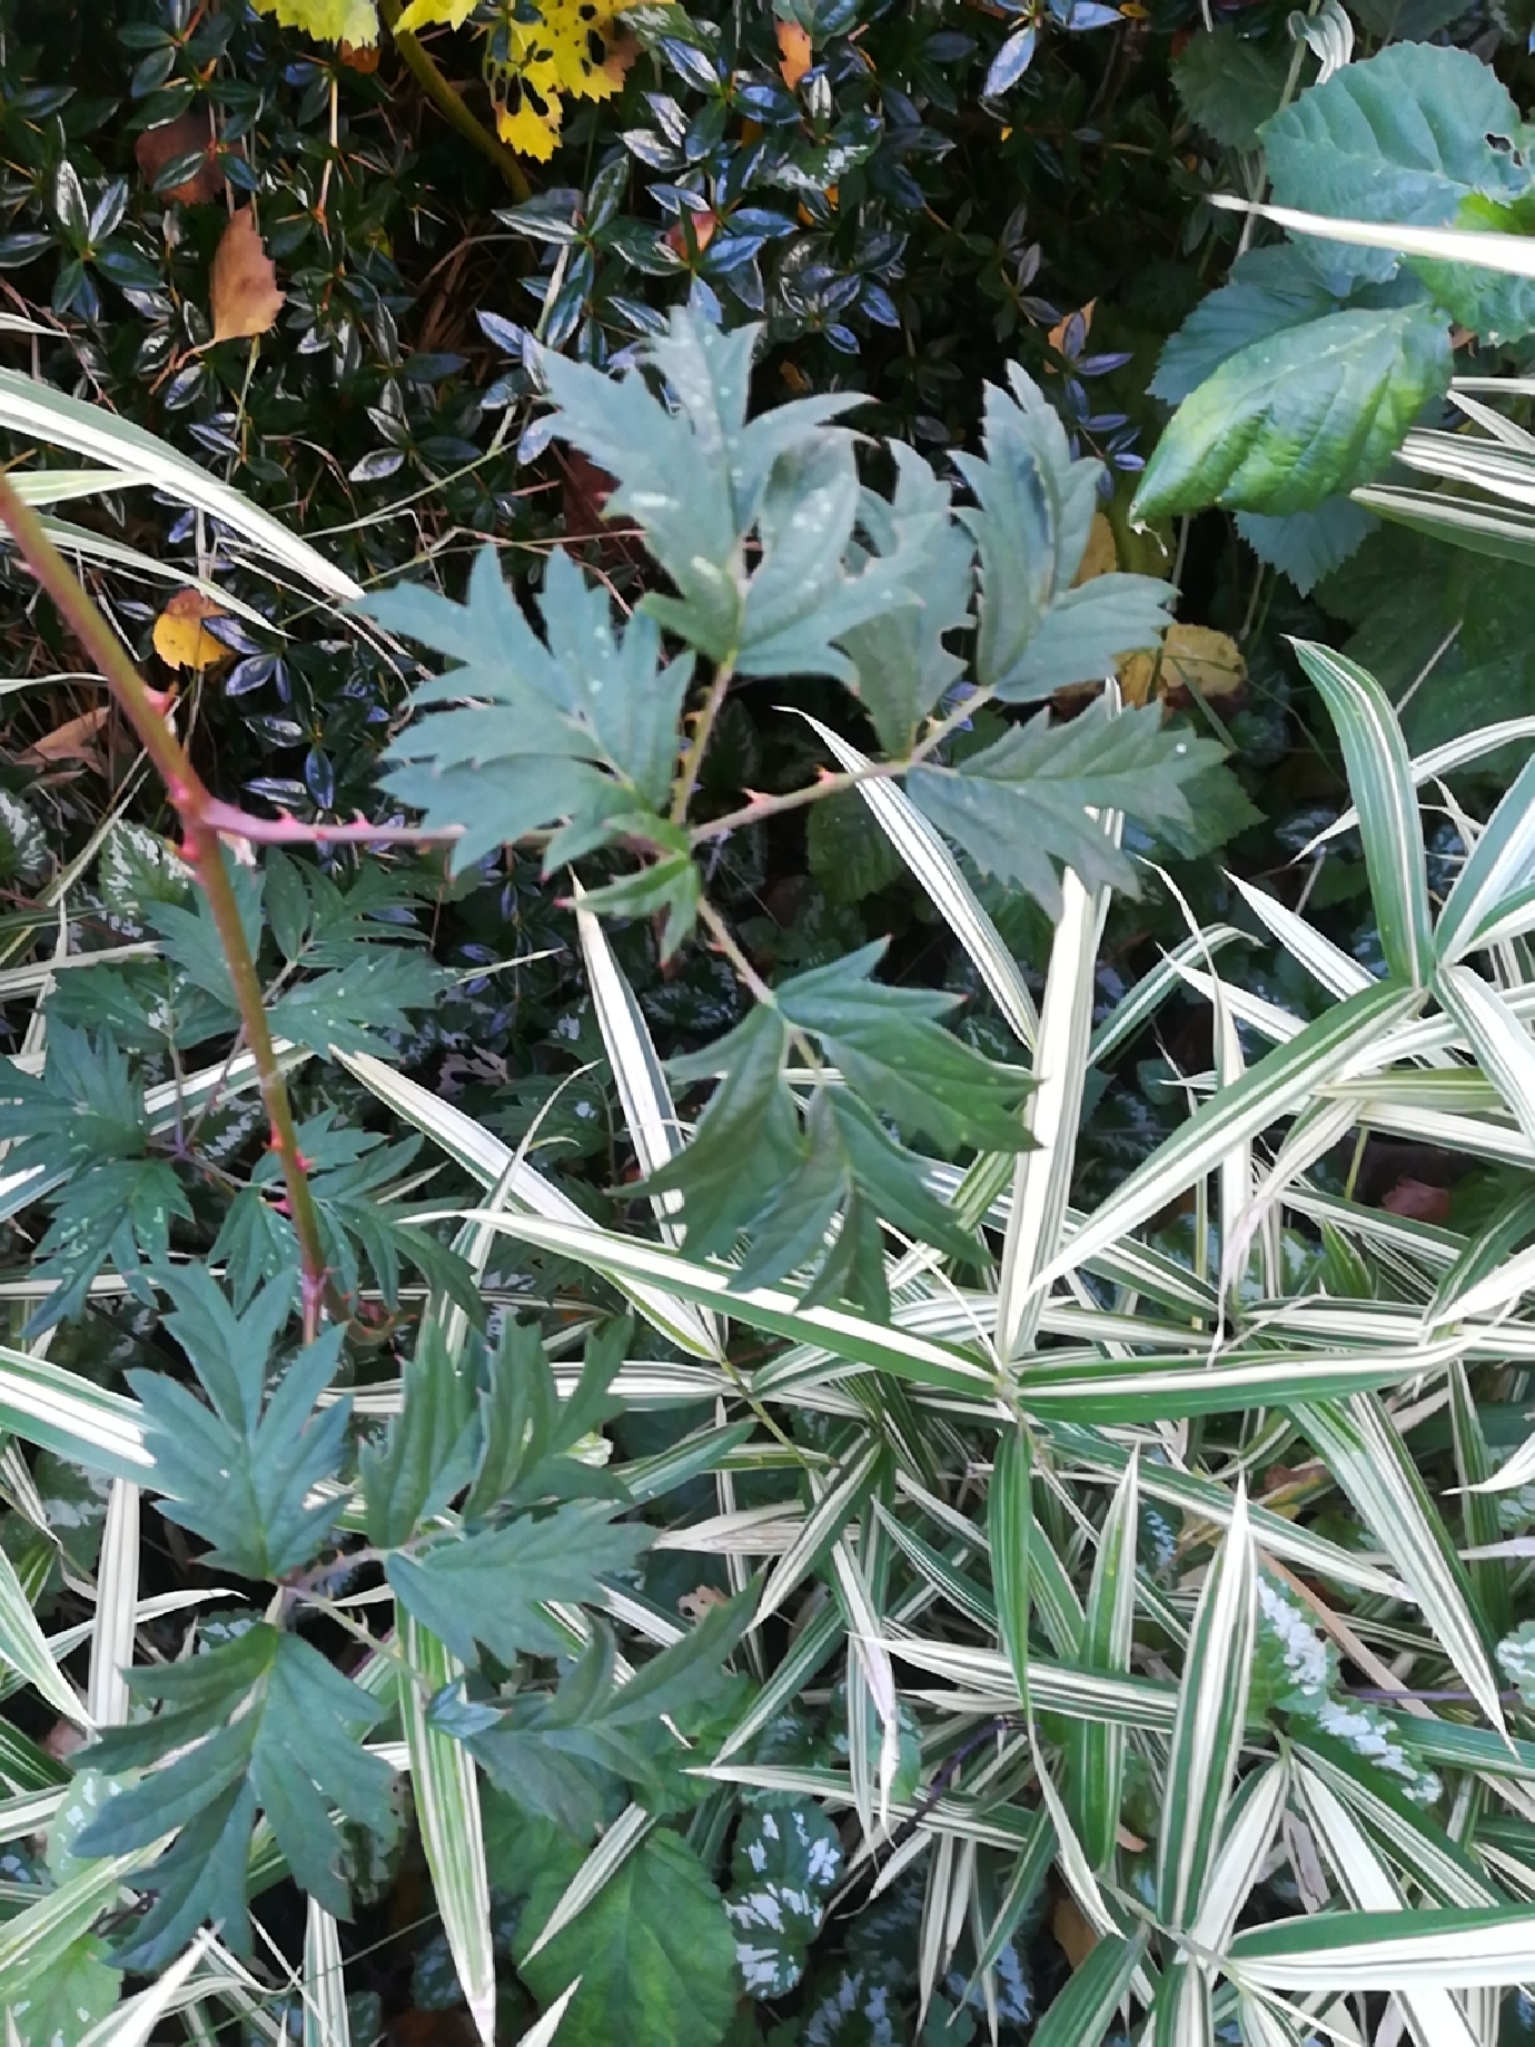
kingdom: Plantae
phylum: Tracheophyta
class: Magnoliopsida
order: Rosales
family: Rosaceae
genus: Rubus
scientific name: Rubus laciniatus
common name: Evergreen blackberry
